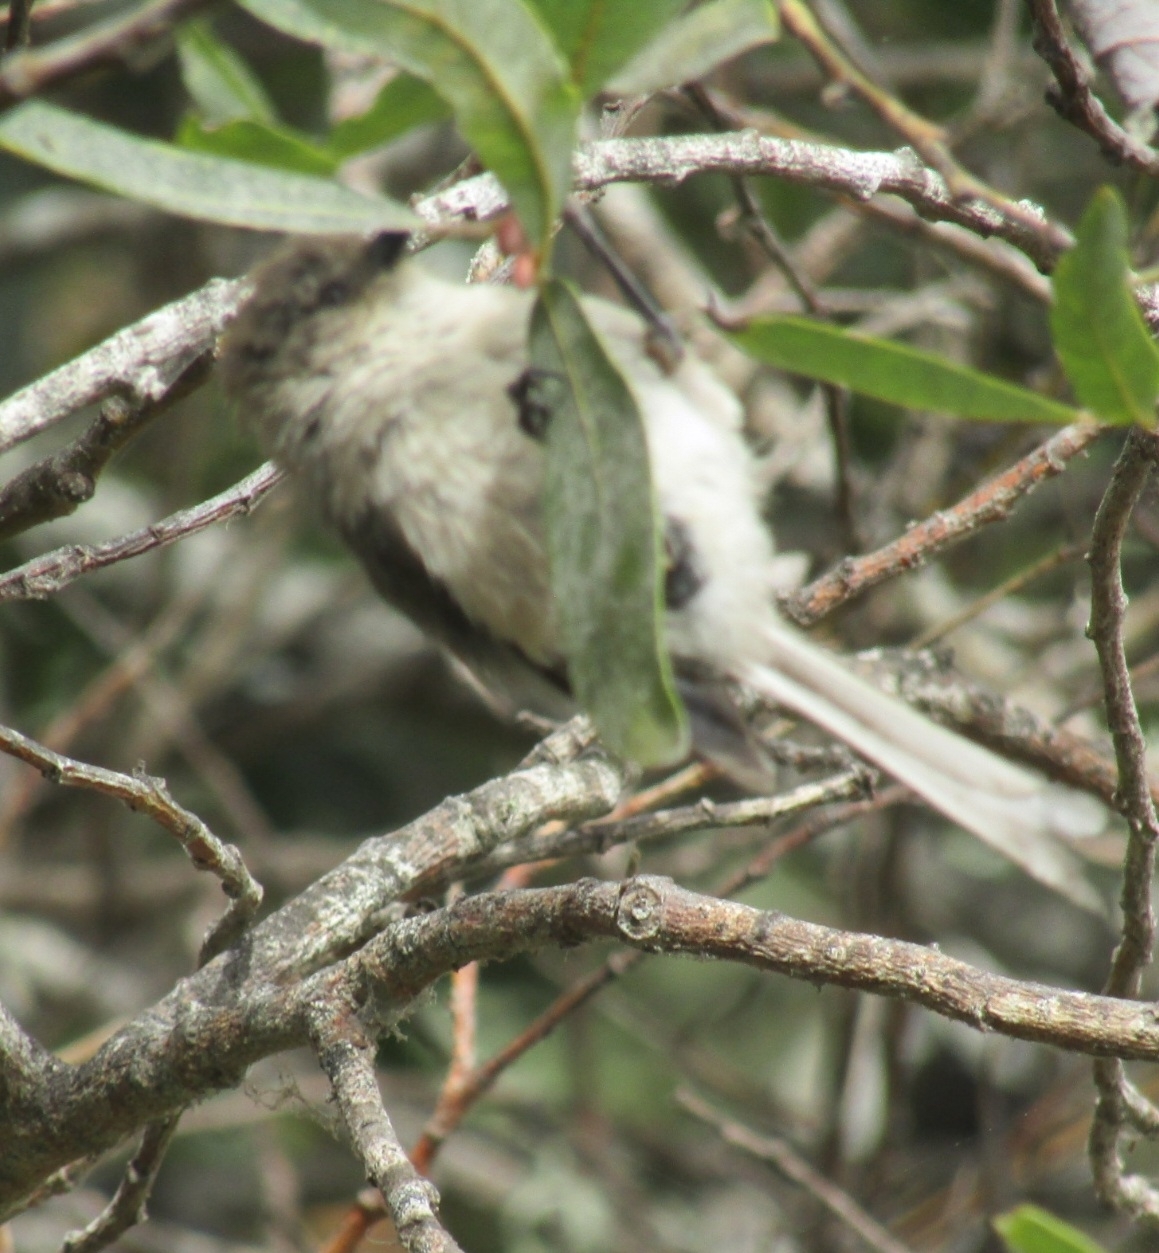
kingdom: Animalia
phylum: Chordata
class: Aves
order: Passeriformes
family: Aegithalidae
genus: Psaltriparus
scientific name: Psaltriparus minimus
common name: American bushtit
